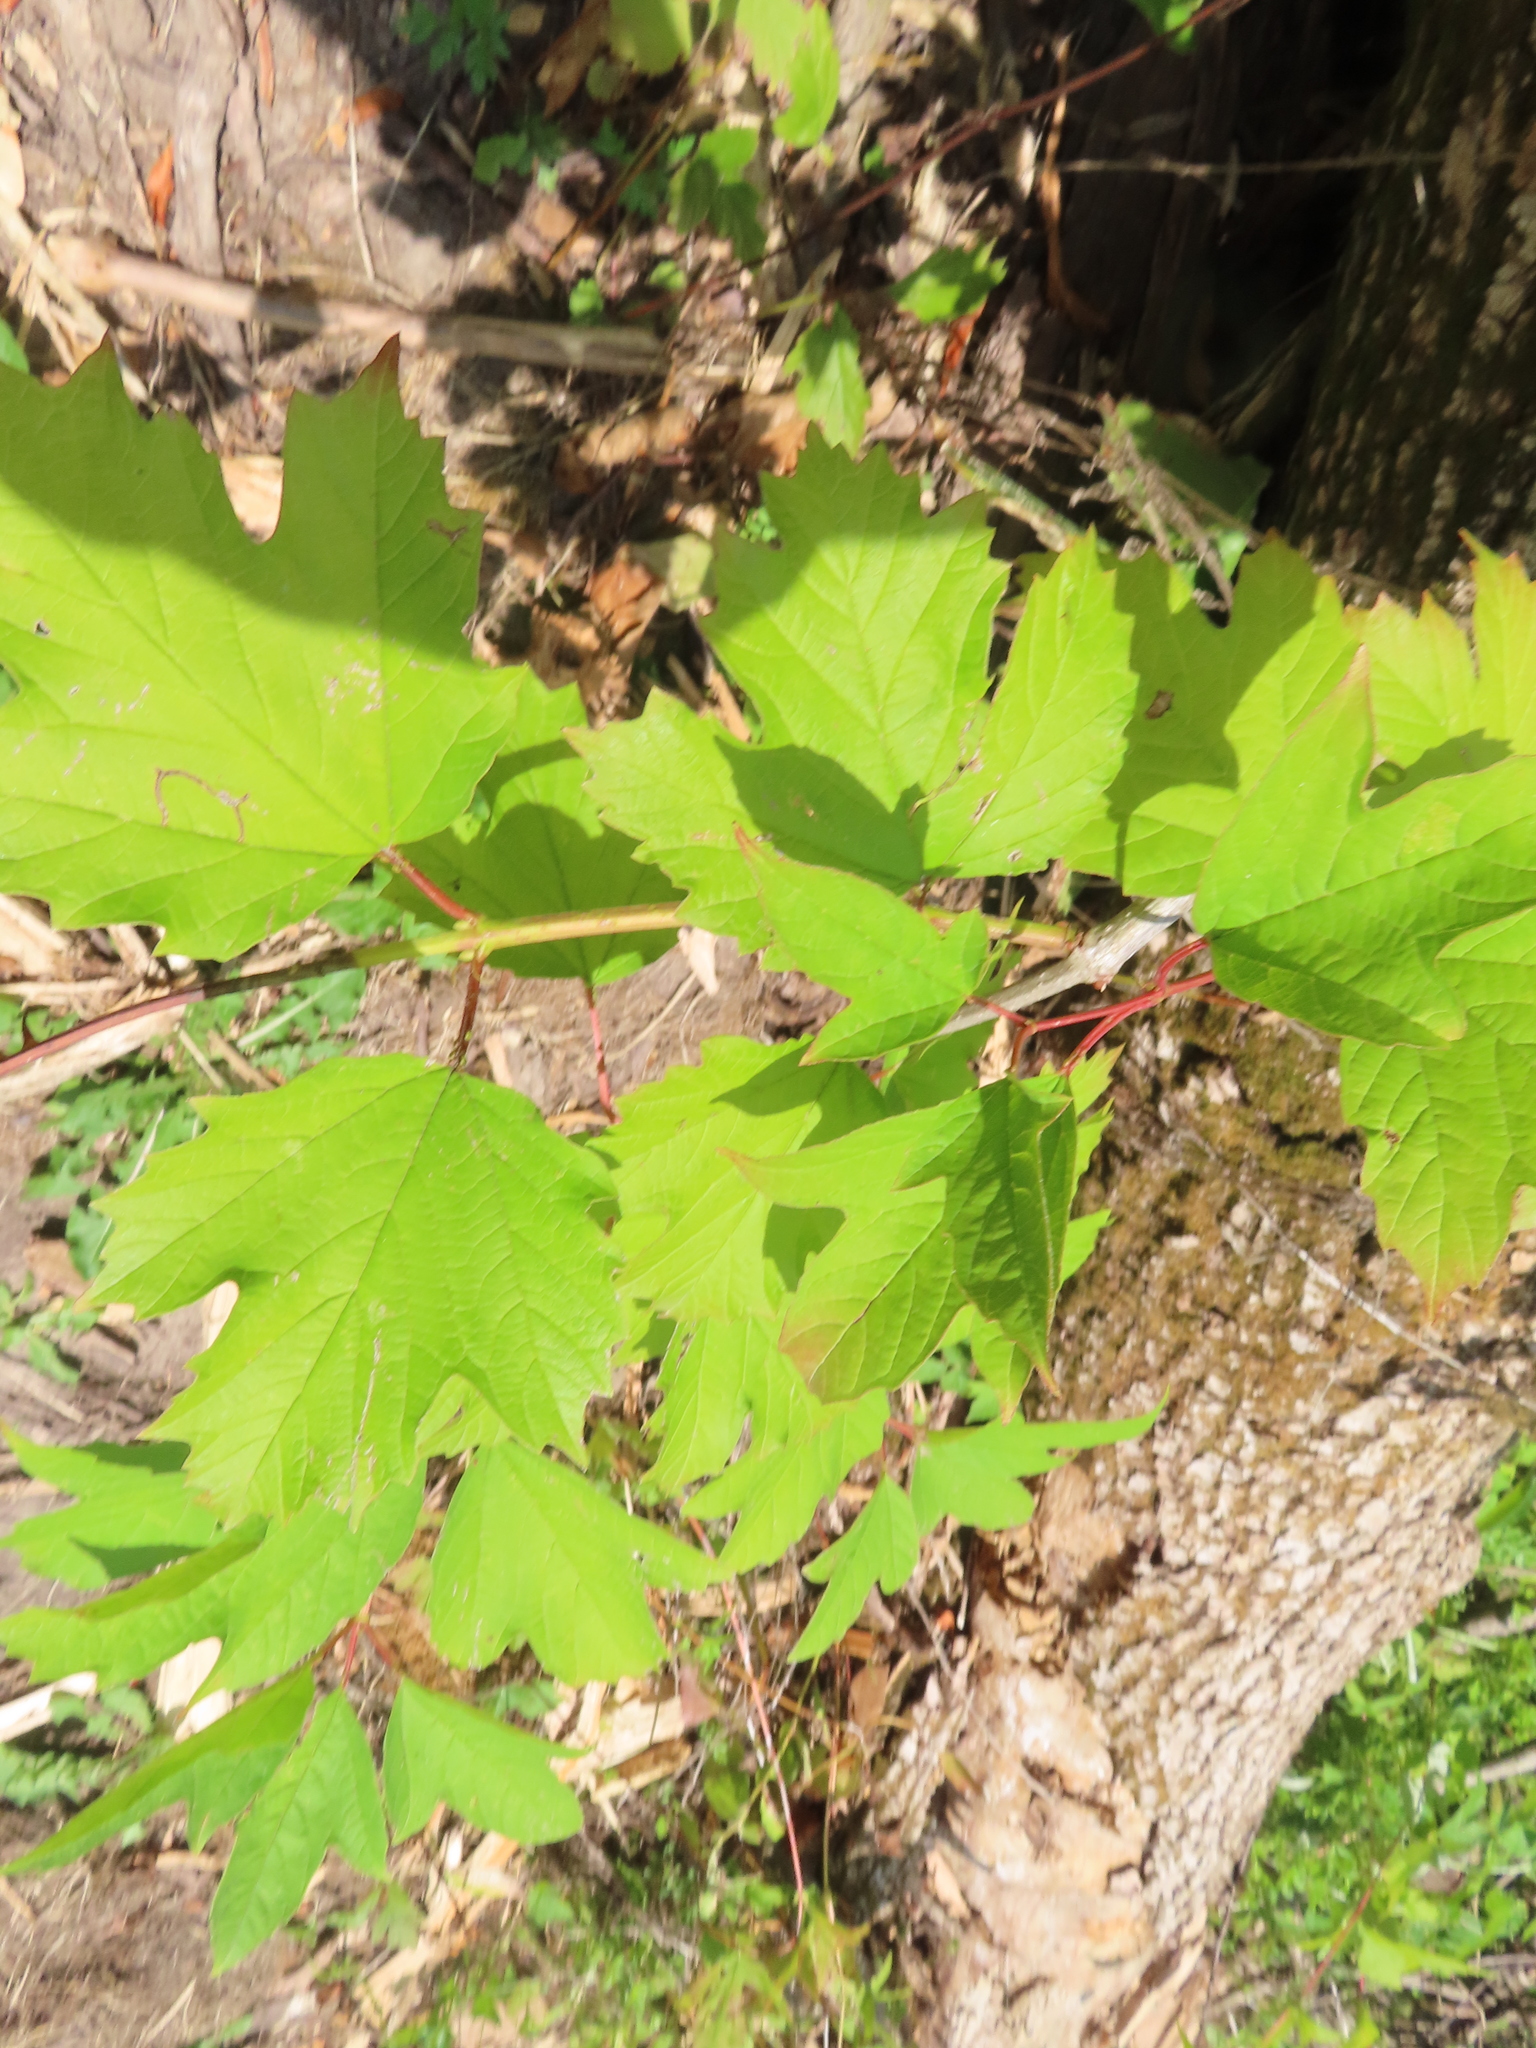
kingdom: Plantae
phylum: Tracheophyta
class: Magnoliopsida
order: Dipsacales
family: Viburnaceae
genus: Viburnum
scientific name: Viburnum opulus
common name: Guelder-rose
